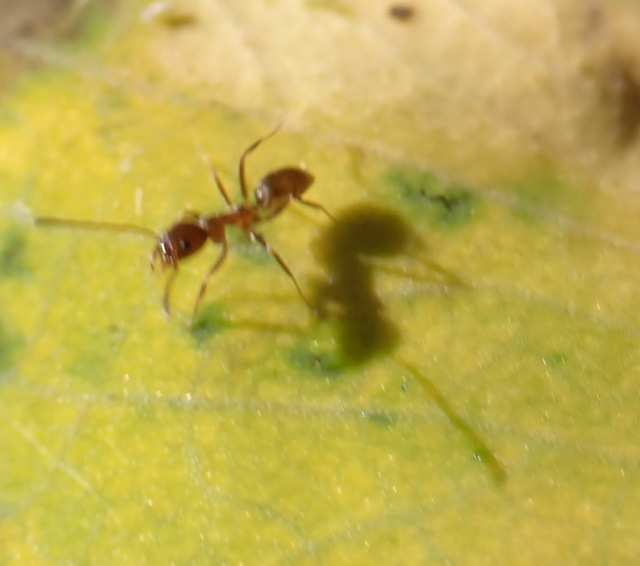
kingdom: Animalia
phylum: Arthropoda
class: Insecta
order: Hymenoptera
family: Formicidae
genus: Linepithema
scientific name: Linepithema humile
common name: Argentine ant
